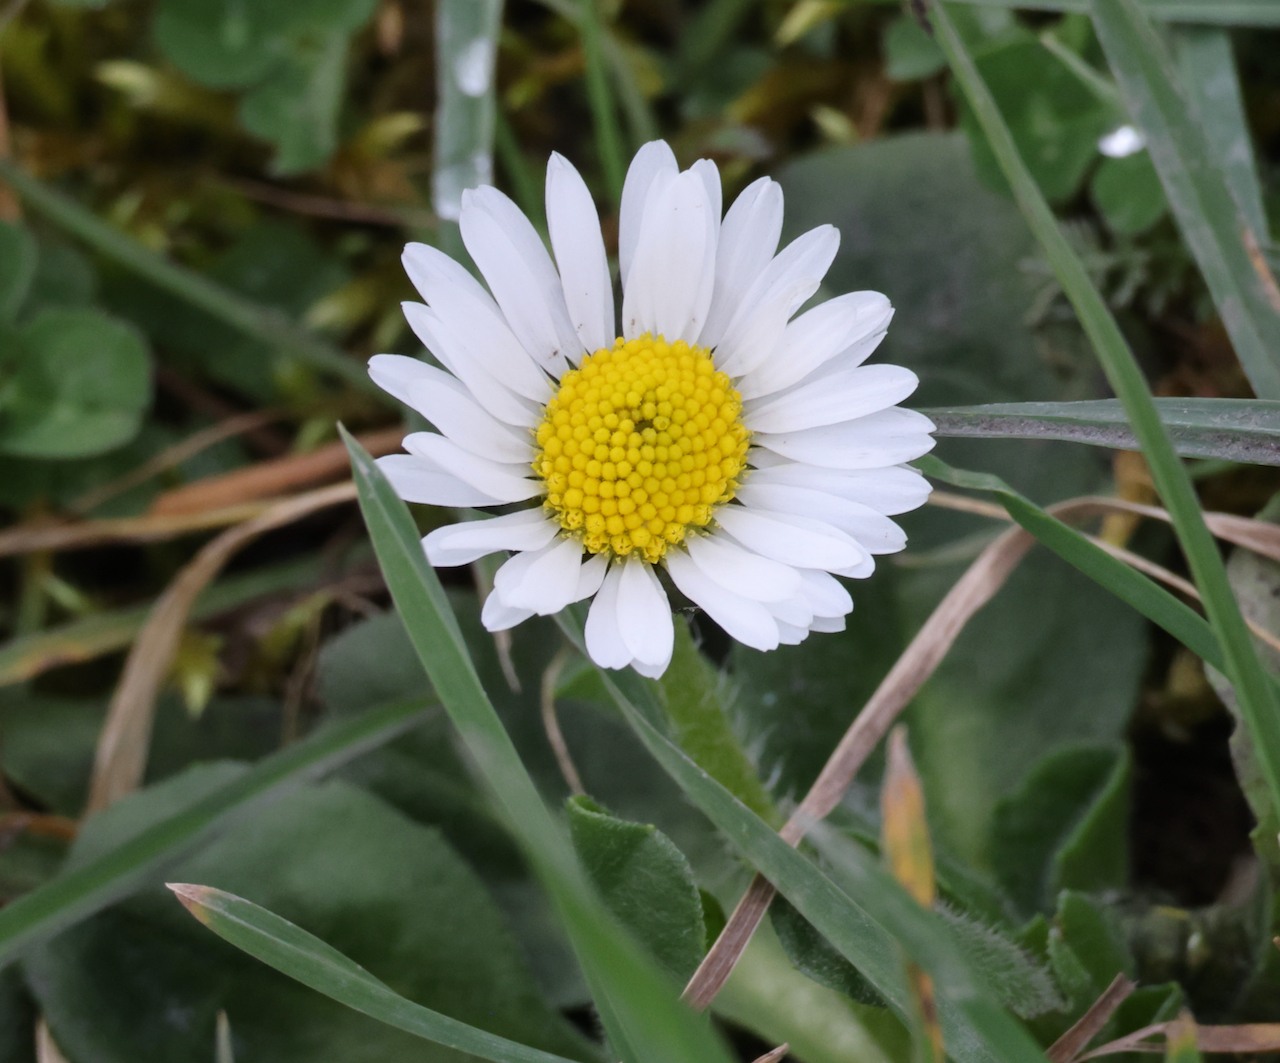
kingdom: Plantae
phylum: Tracheophyta
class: Magnoliopsida
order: Asterales
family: Asteraceae
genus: Bellis
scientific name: Bellis perennis
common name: Lawndaisy
